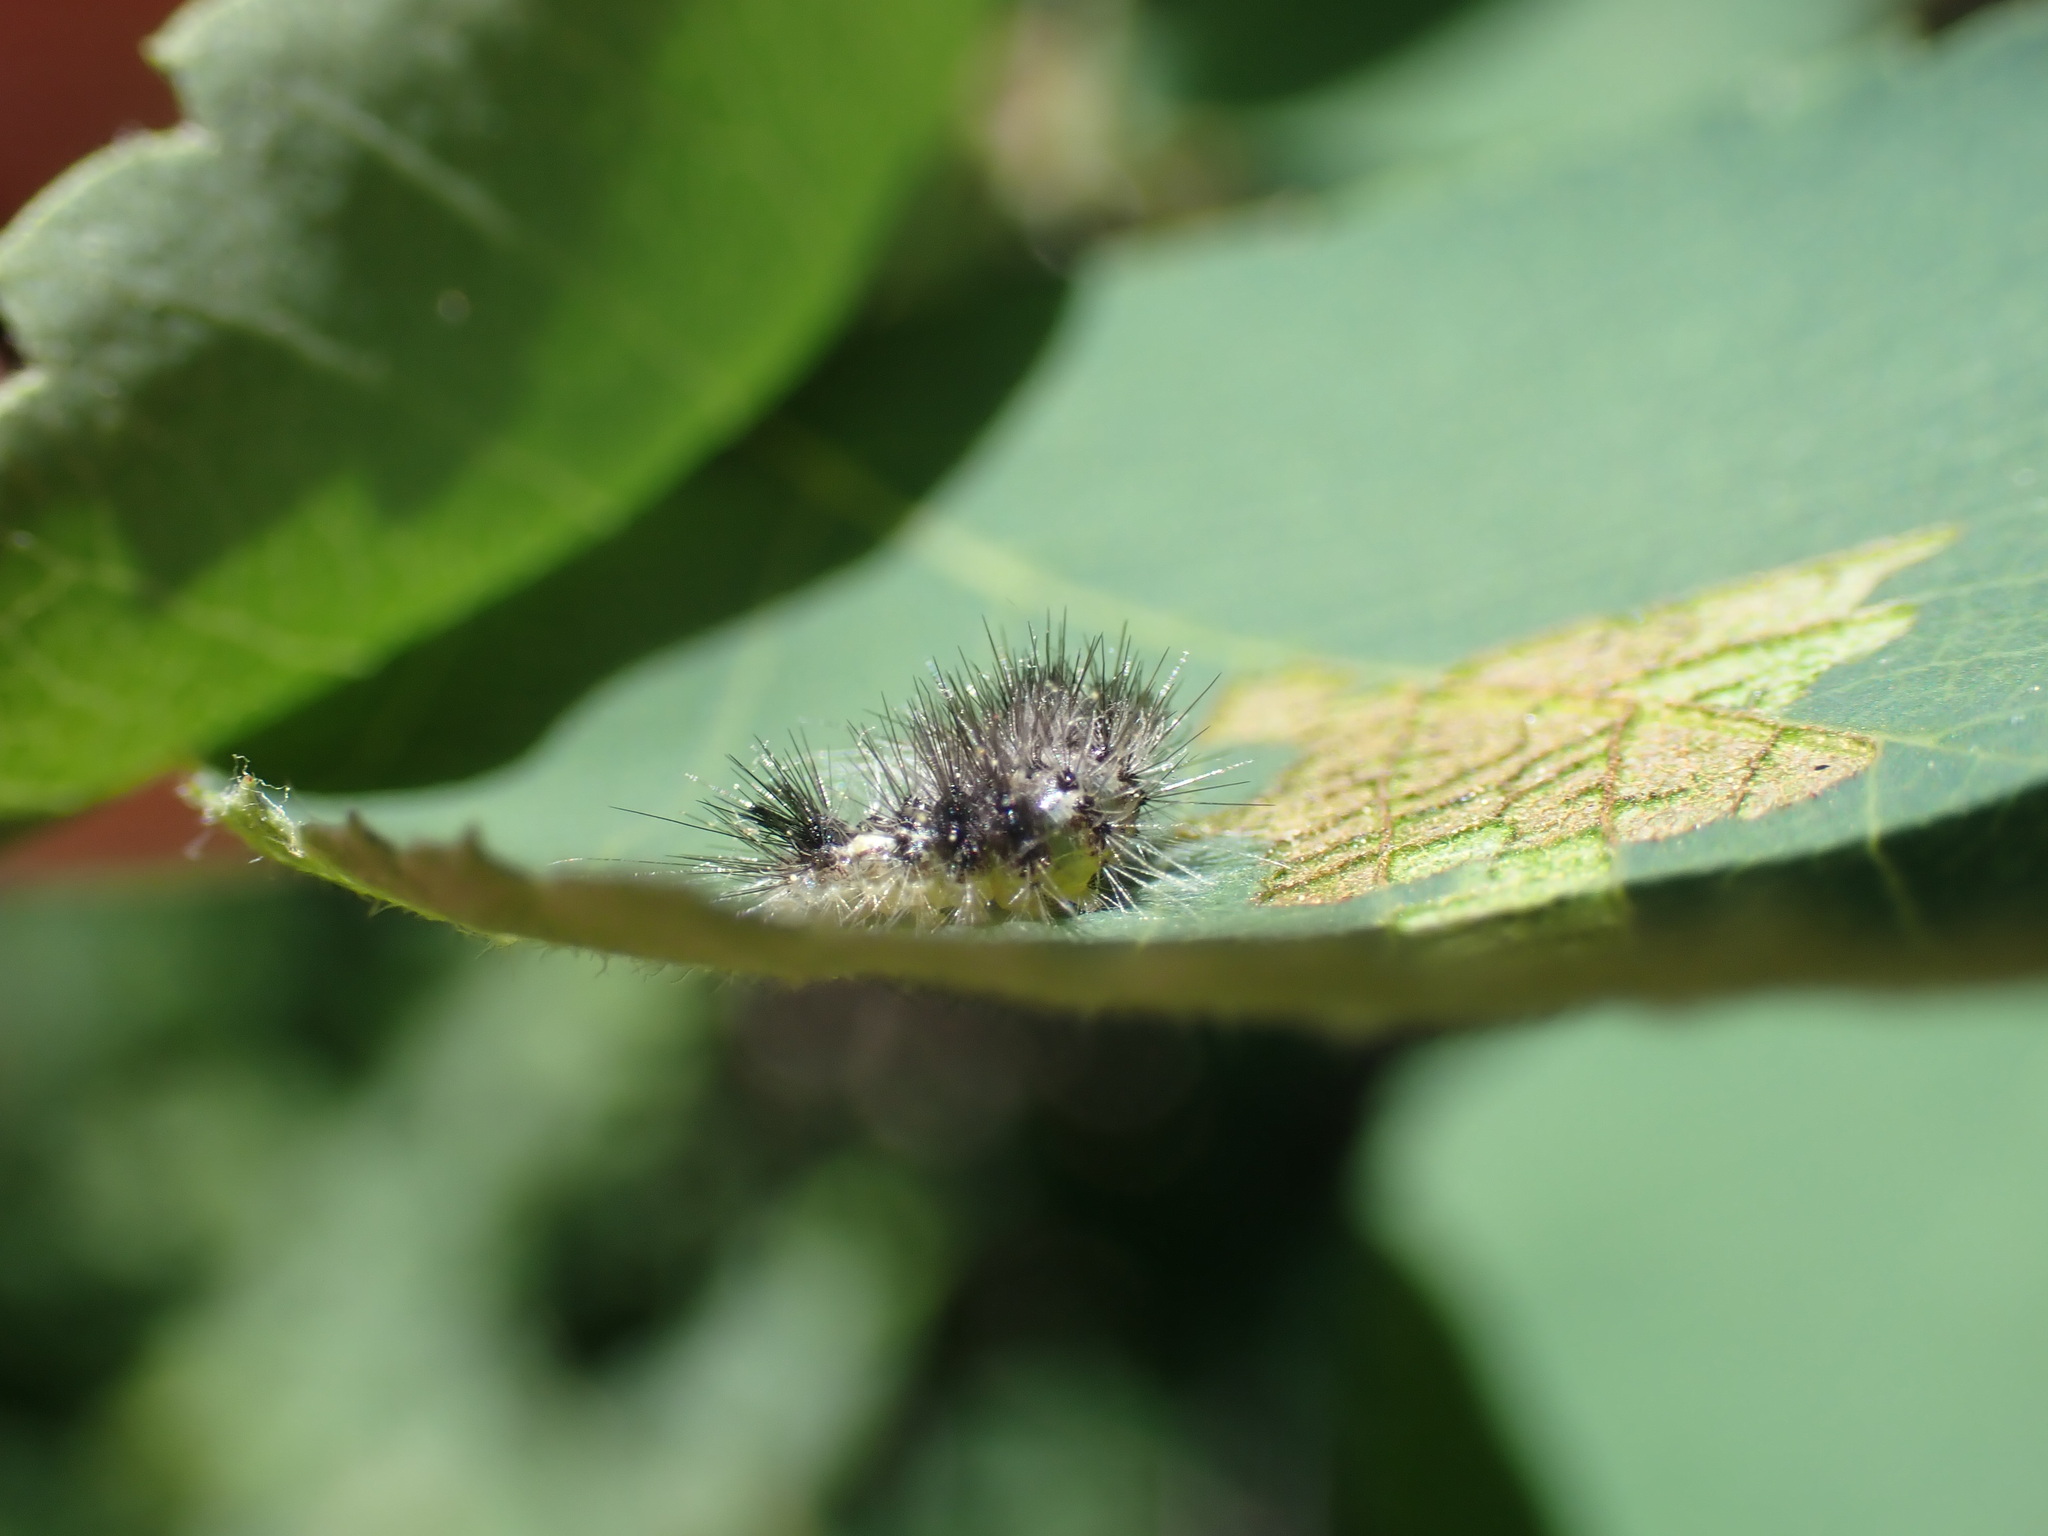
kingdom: Animalia
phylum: Arthropoda
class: Insecta
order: Lepidoptera
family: Noctuidae
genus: Acronicta
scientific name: Acronicta impleta
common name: Powdered dagger
